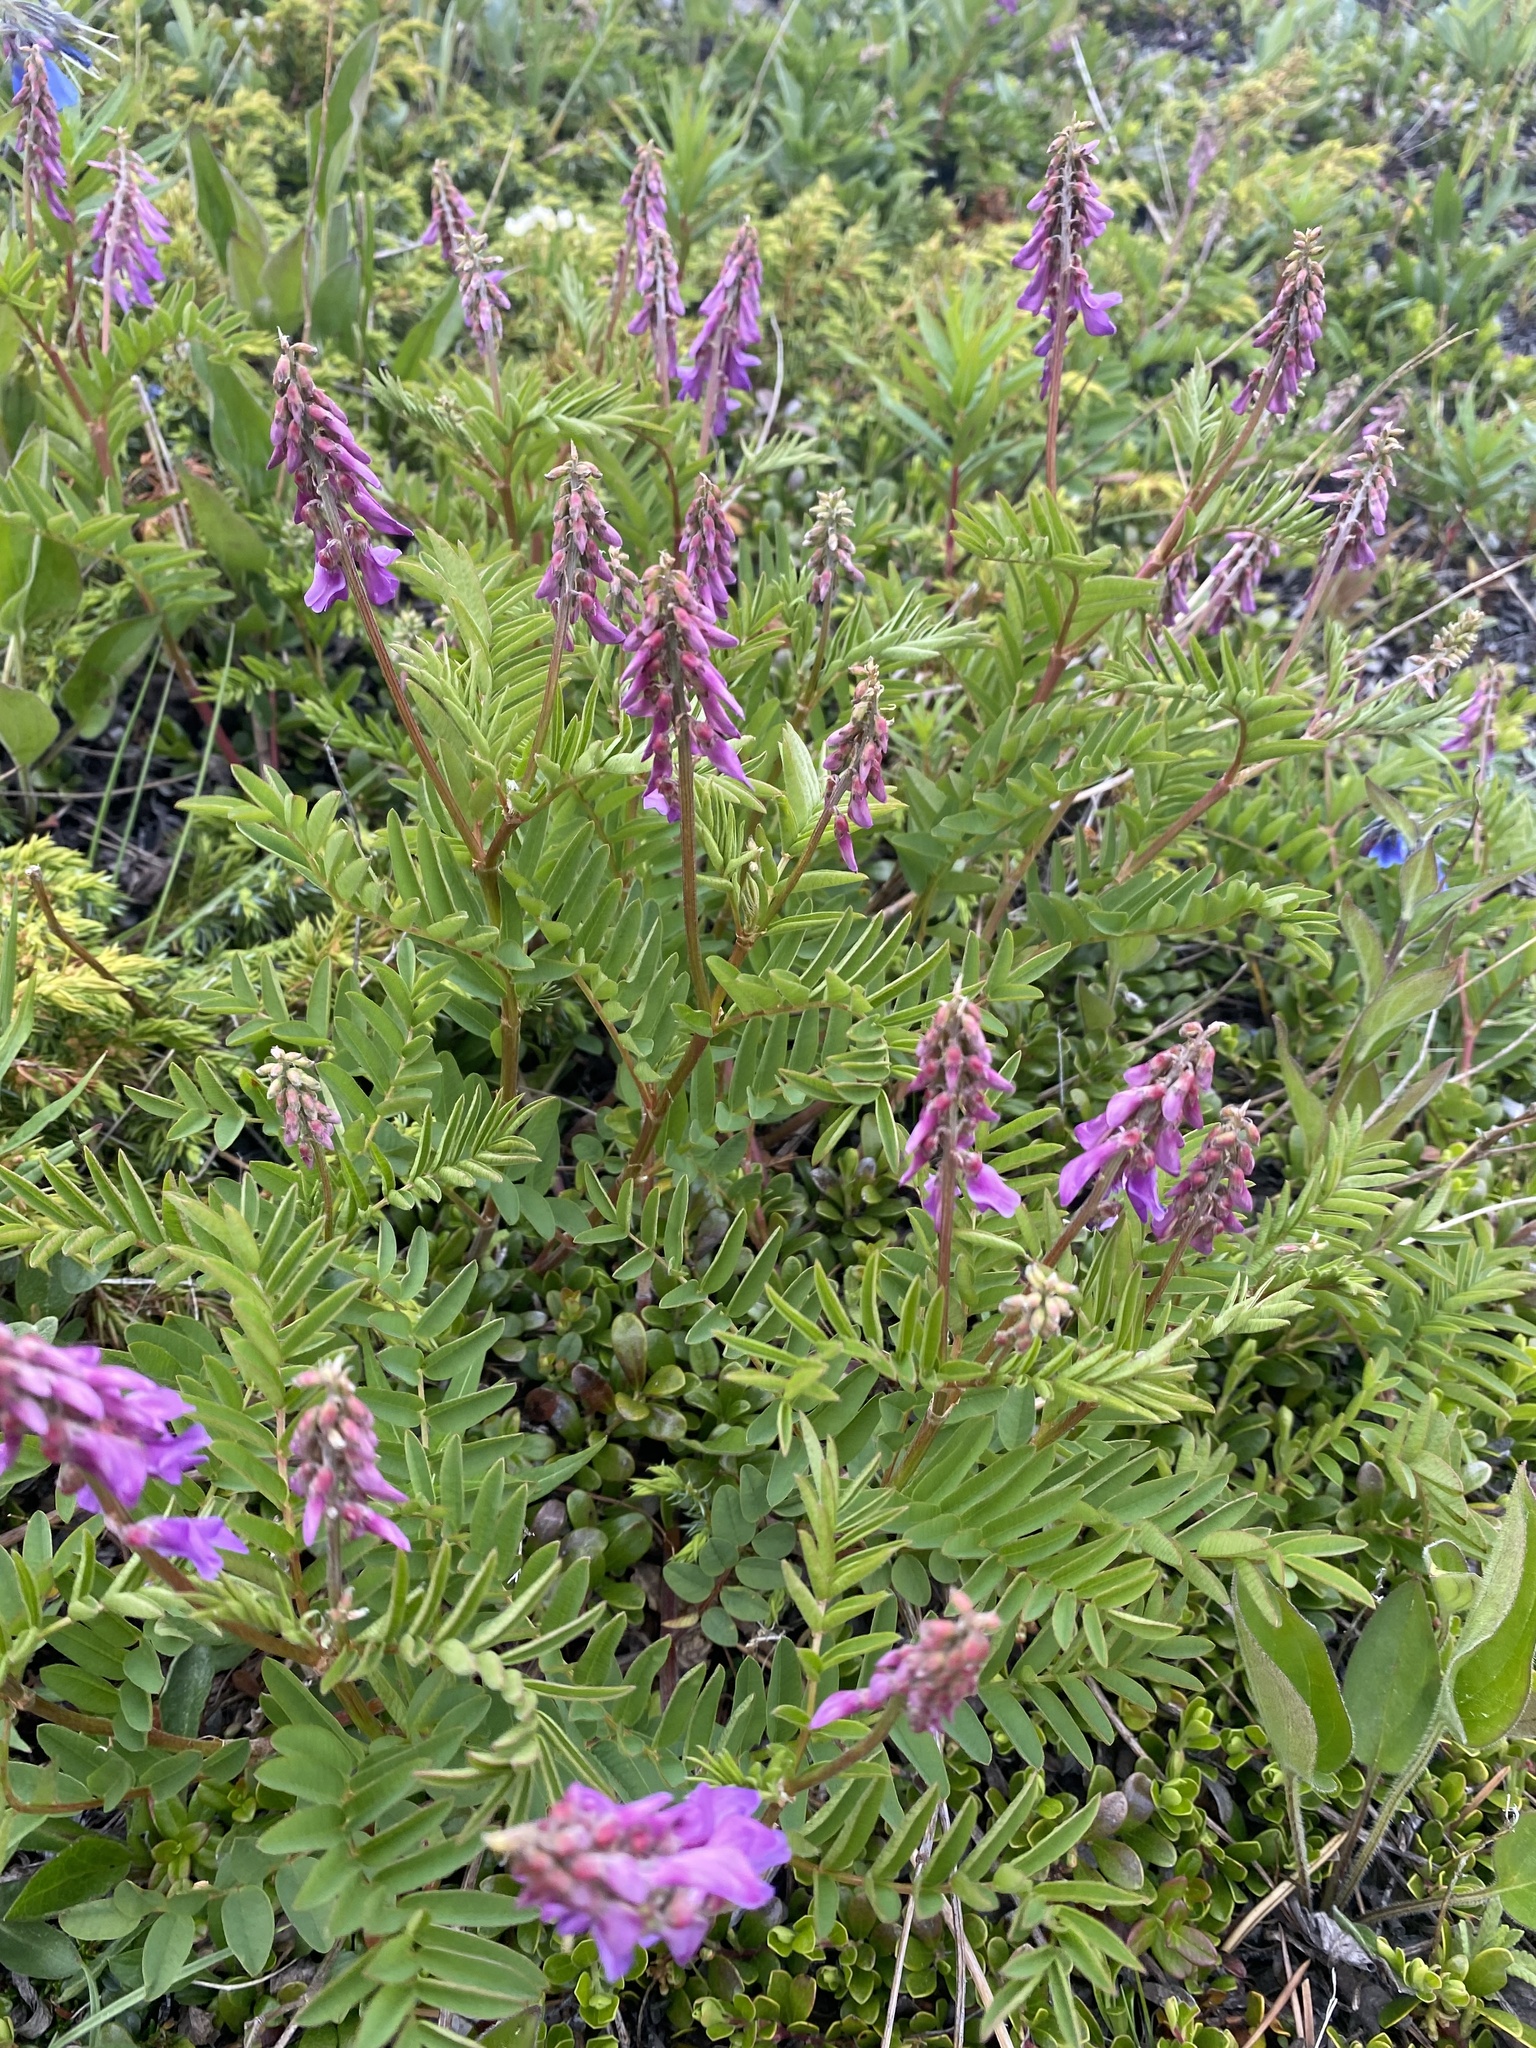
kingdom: Plantae
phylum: Tracheophyta
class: Magnoliopsida
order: Fabales
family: Fabaceae
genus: Hedysarum
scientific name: Hedysarum alpinum
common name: Alpine sweet-vetch
